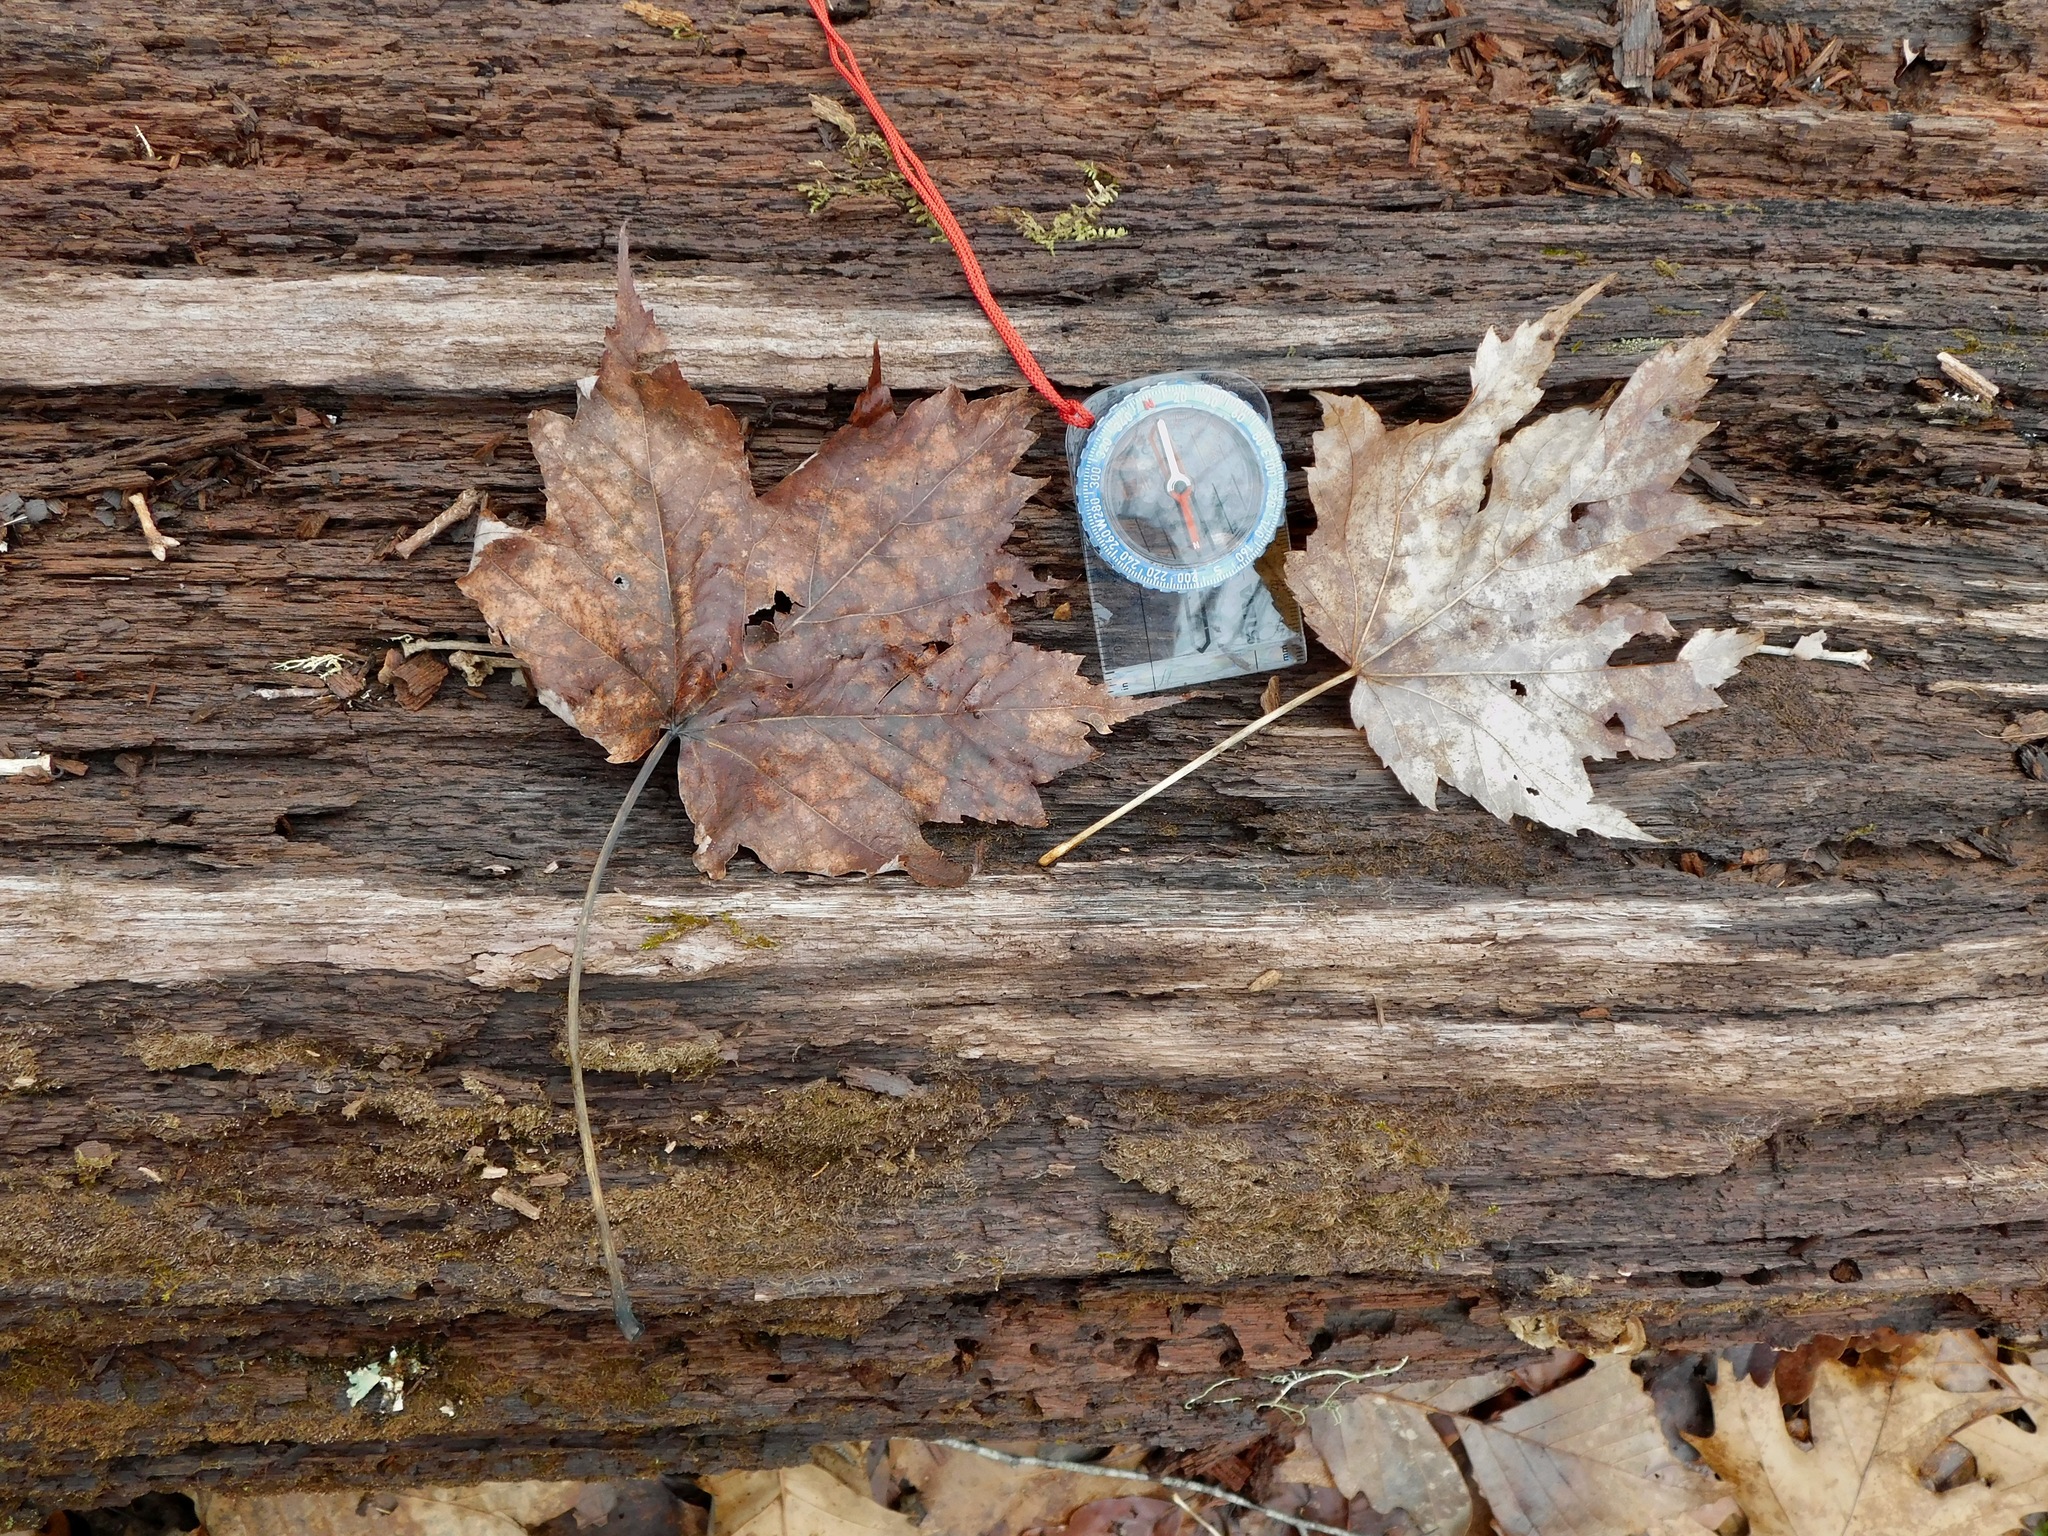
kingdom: Plantae
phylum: Tracheophyta
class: Magnoliopsida
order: Sapindales
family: Sapindaceae
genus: Acer
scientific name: Acer freemanii
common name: Freeman maple
